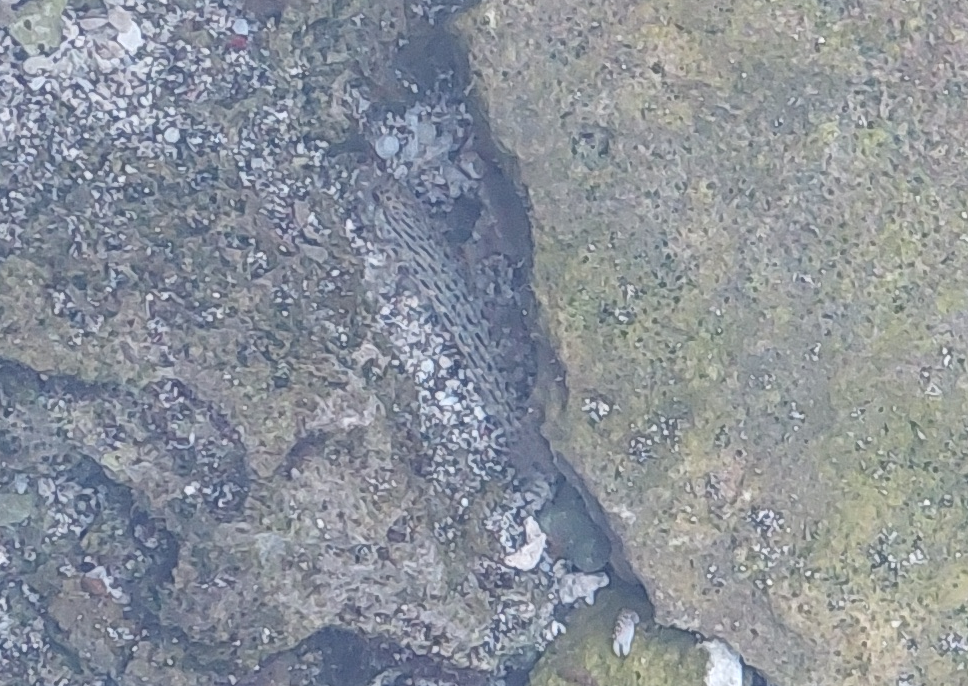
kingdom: Animalia
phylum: Chordata
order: Perciformes
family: Gobiidae
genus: Istigobius
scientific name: Istigobius ornatus
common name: Ornate goby
